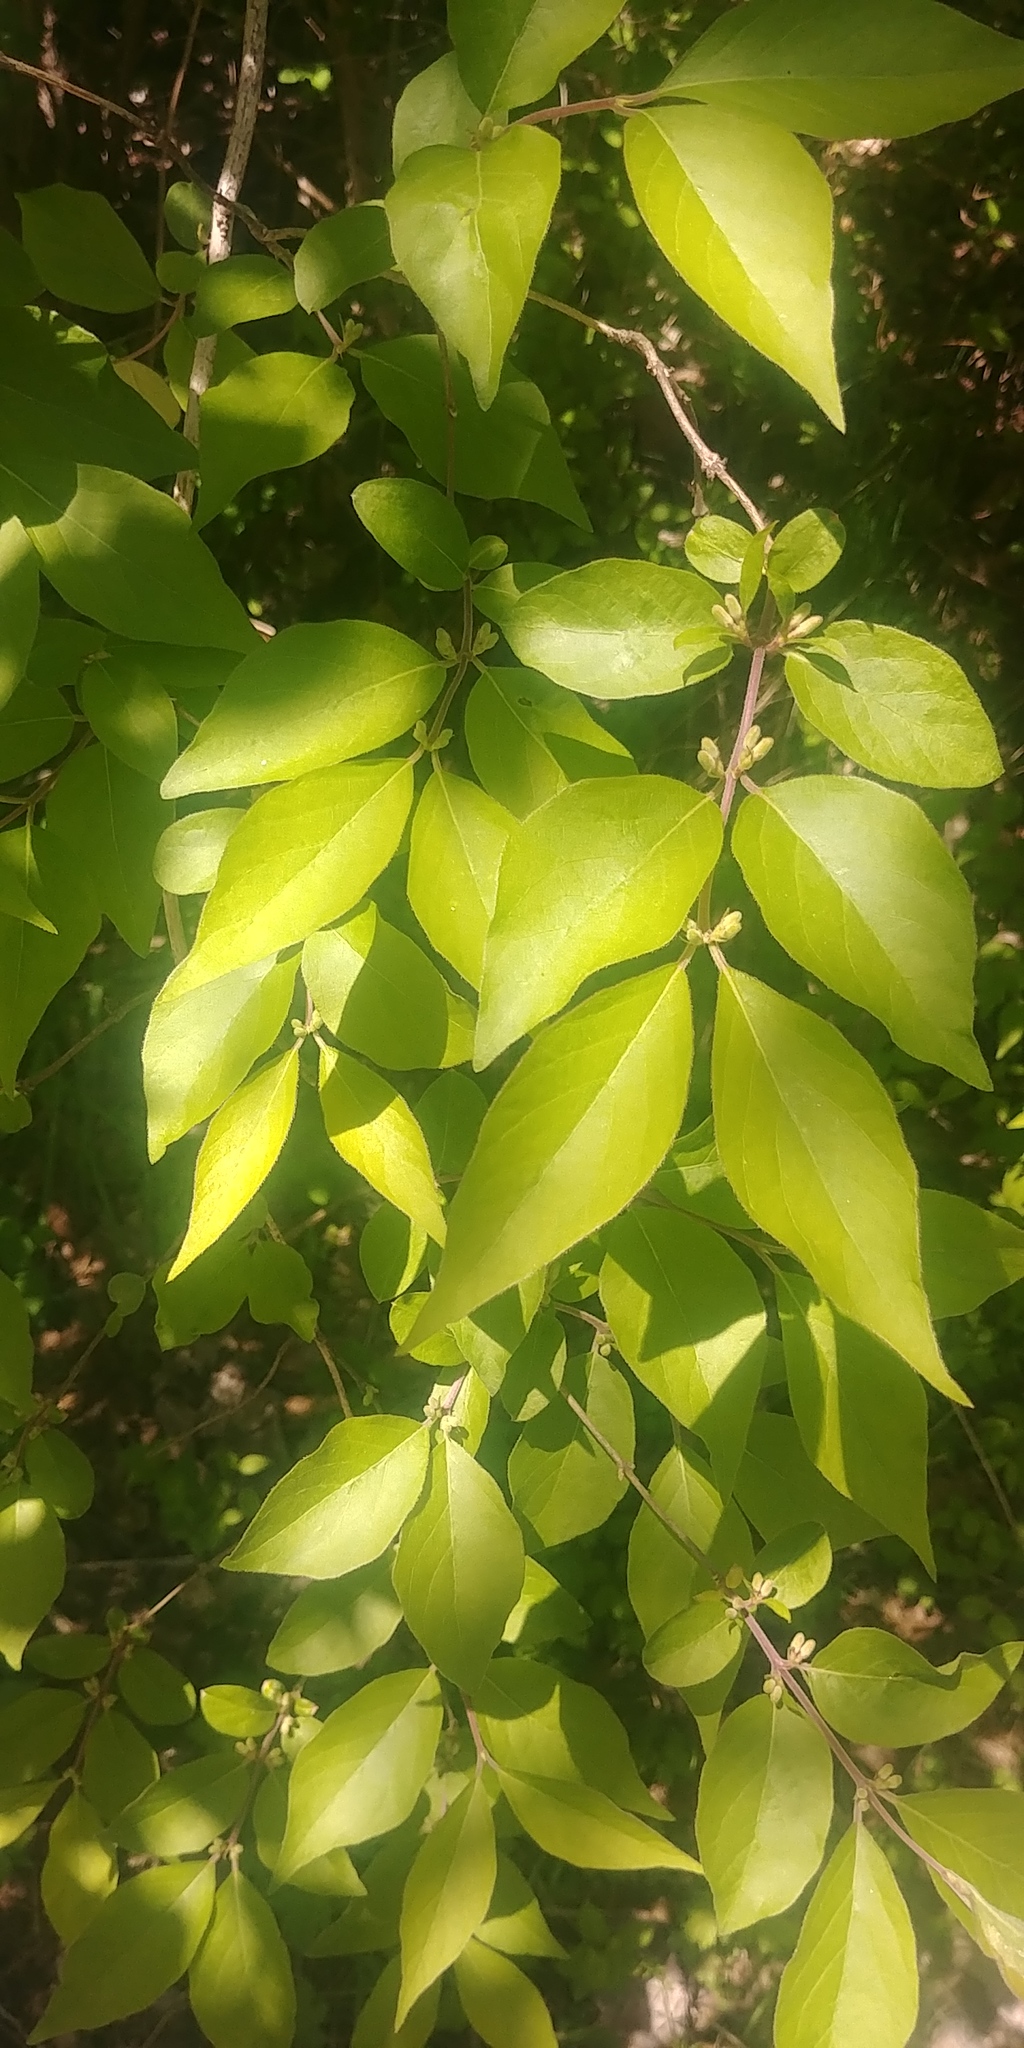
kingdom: Plantae
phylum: Tracheophyta
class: Magnoliopsida
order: Dipsacales
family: Caprifoliaceae
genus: Lonicera
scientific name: Lonicera maackii
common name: Amur honeysuckle
